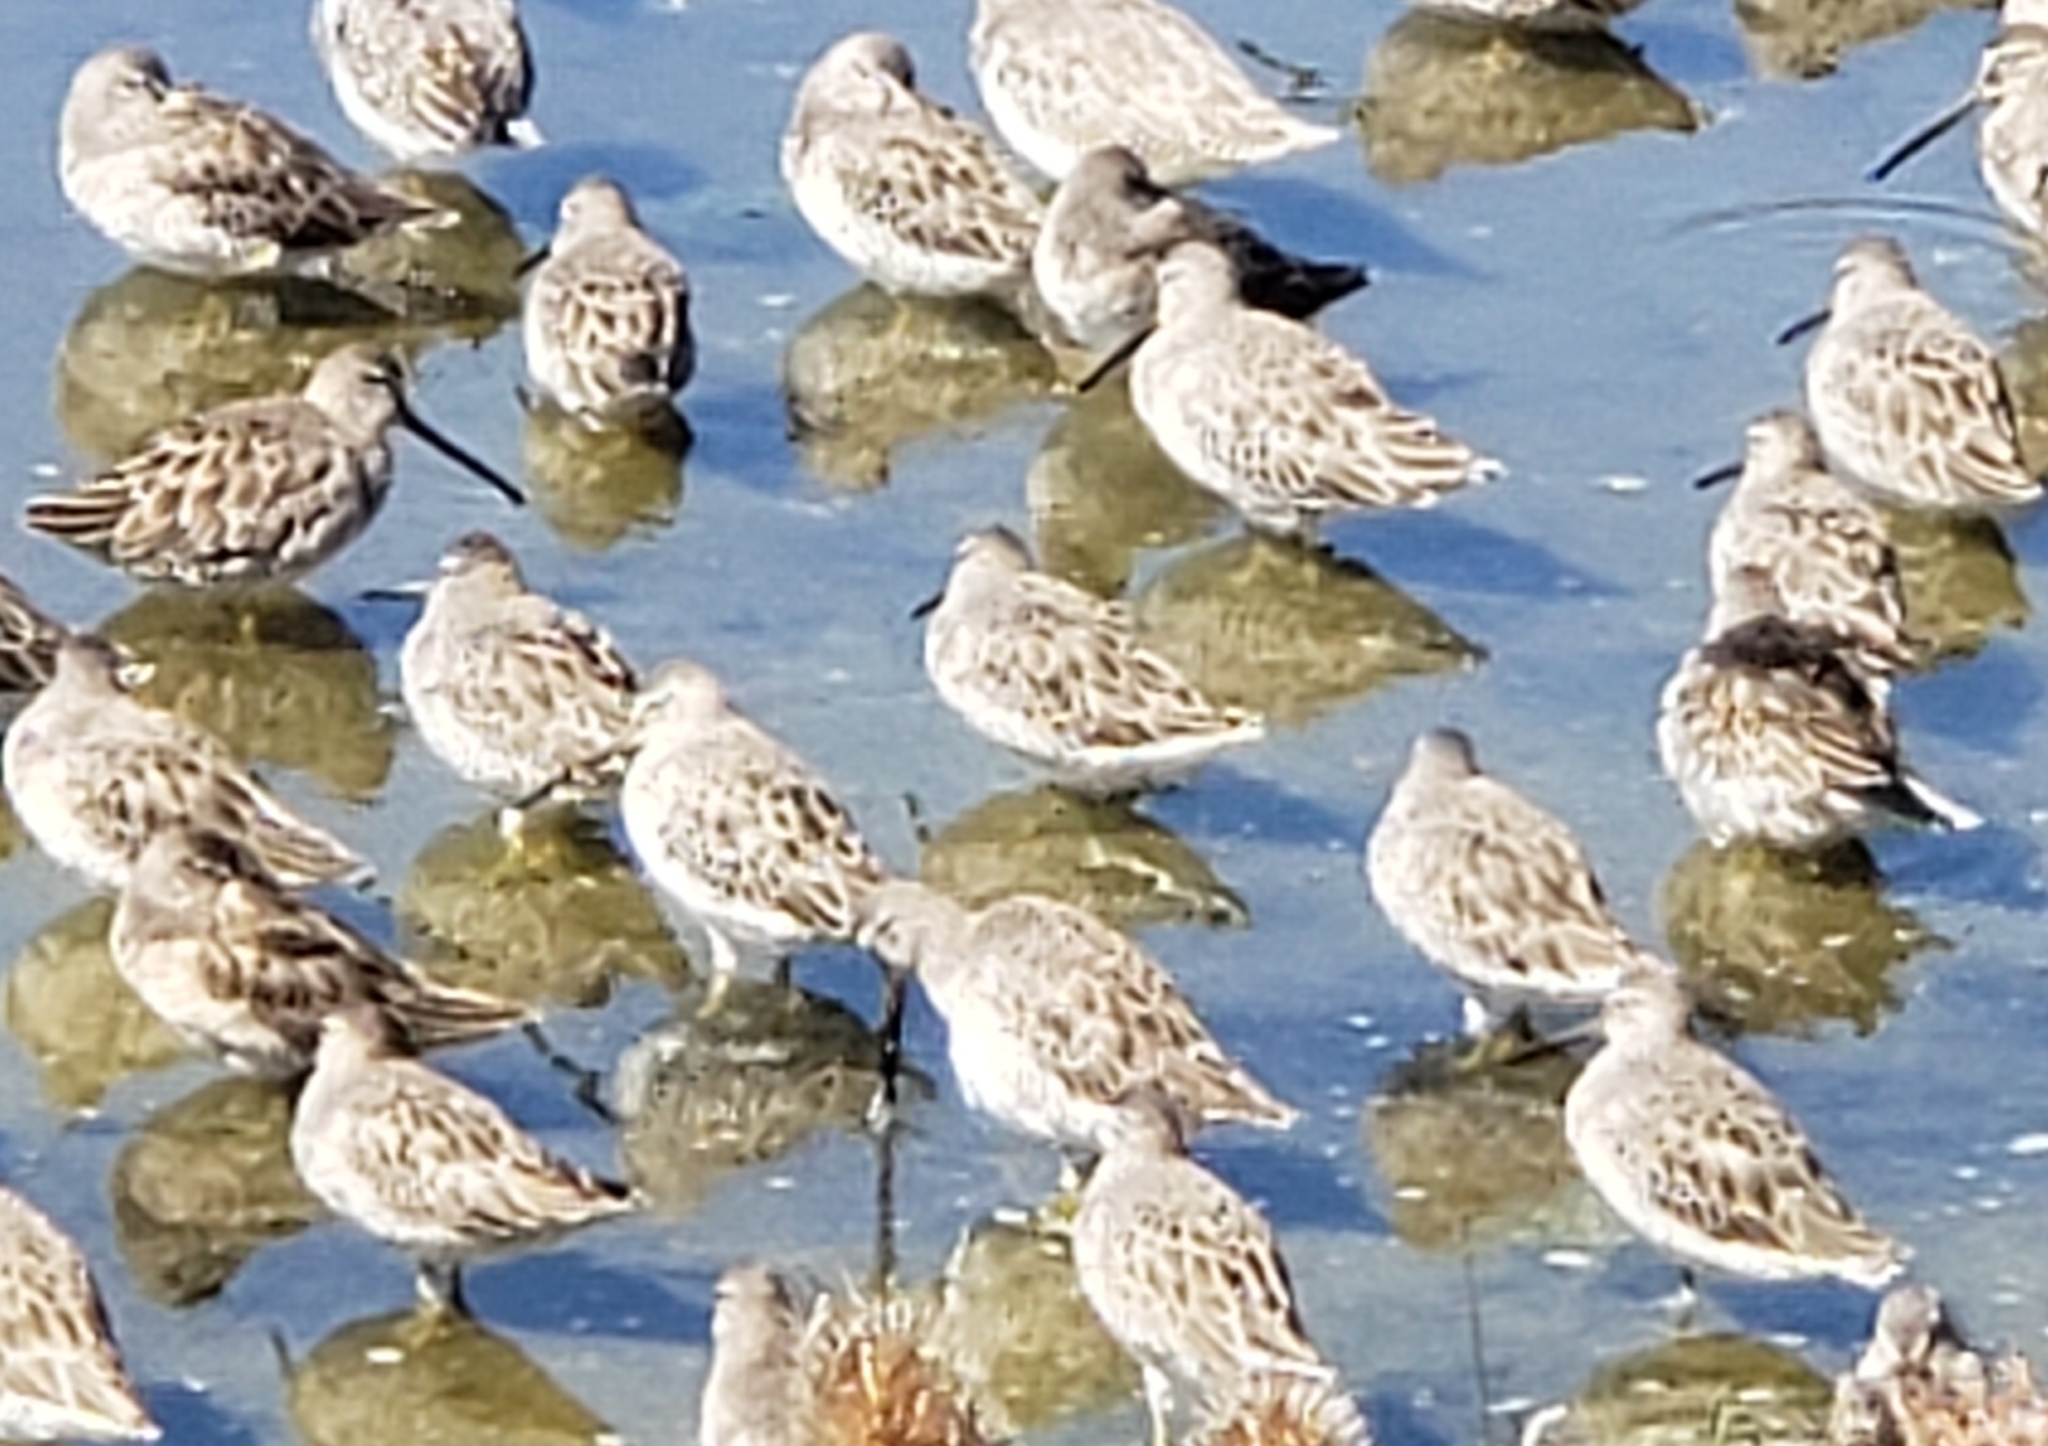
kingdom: Animalia
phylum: Chordata
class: Aves
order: Charadriiformes
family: Scolopacidae
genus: Limnodromus
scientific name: Limnodromus
